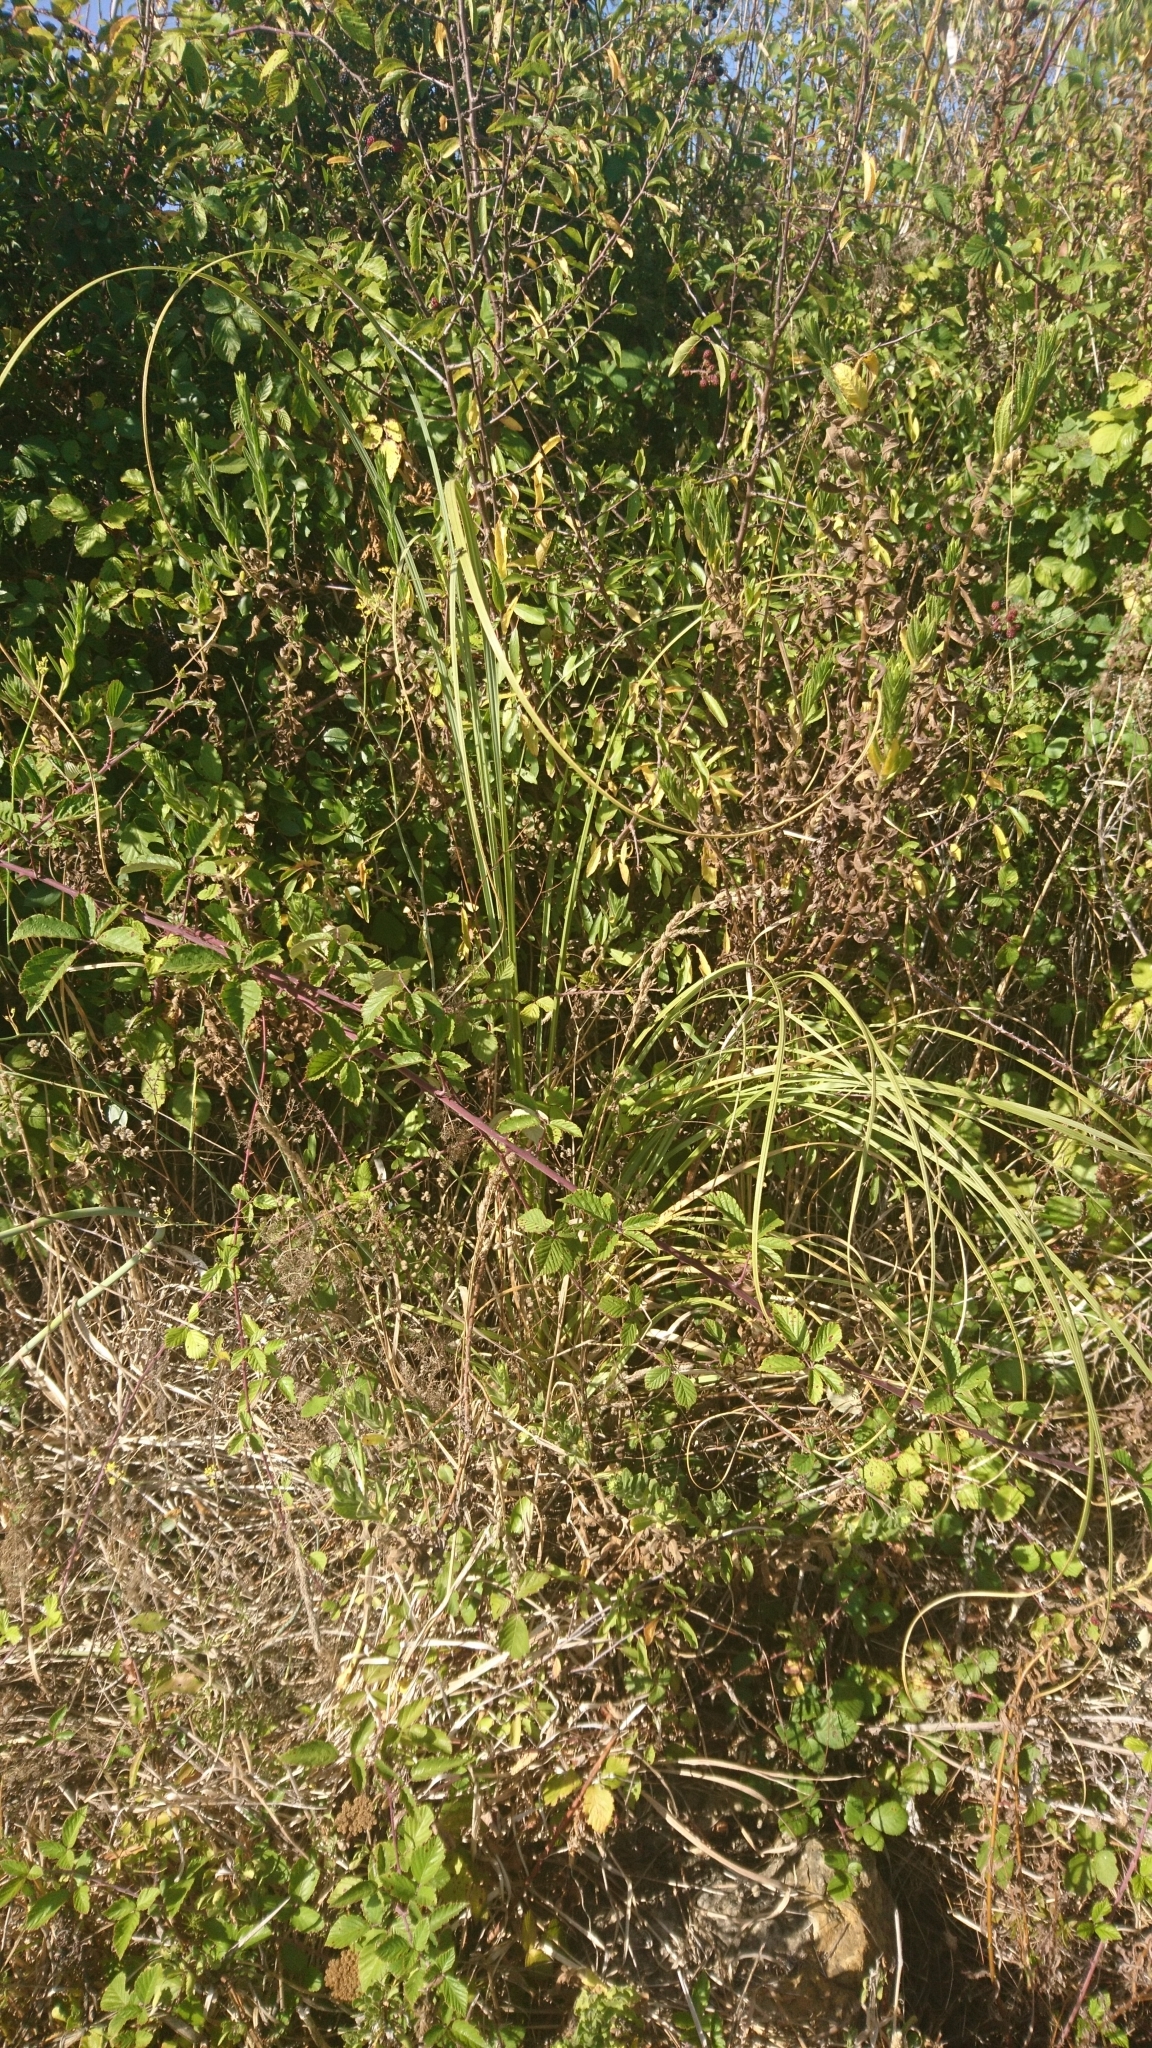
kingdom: Plantae
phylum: Tracheophyta
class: Liliopsida
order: Poales
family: Poaceae
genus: Cortaderia
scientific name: Cortaderia selloana
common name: Uruguayan pampas grass
